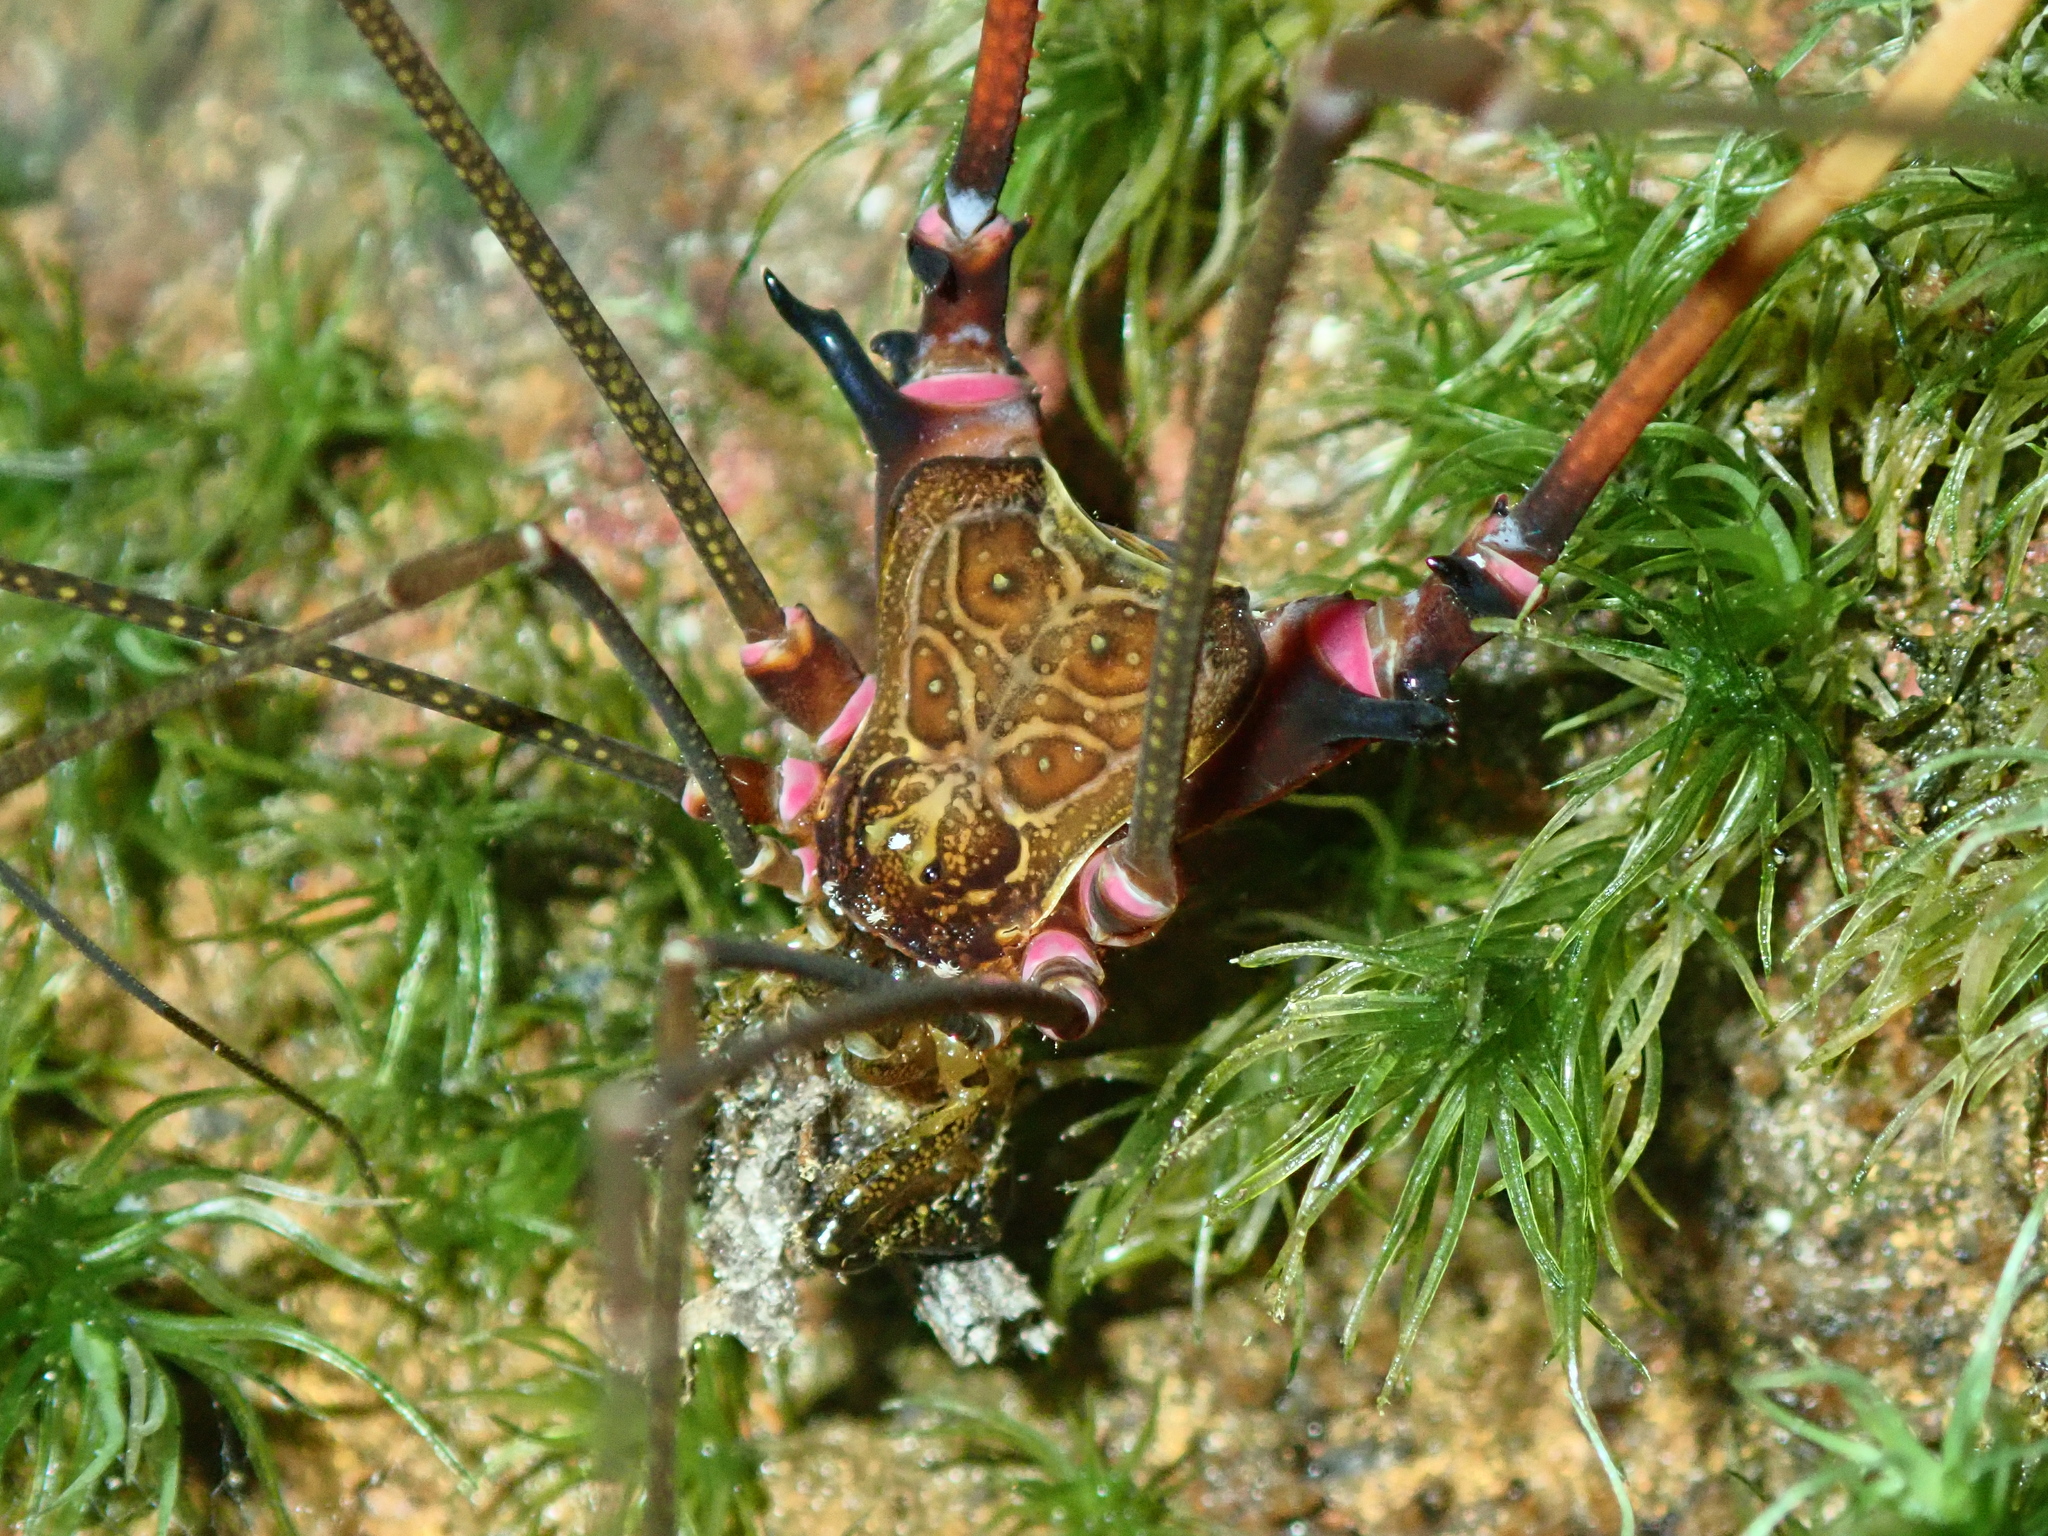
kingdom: Animalia
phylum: Arthropoda
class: Arachnida
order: Opiliones
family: Gonyleptidae
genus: Serracutisoma
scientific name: Serracutisoma inerme
